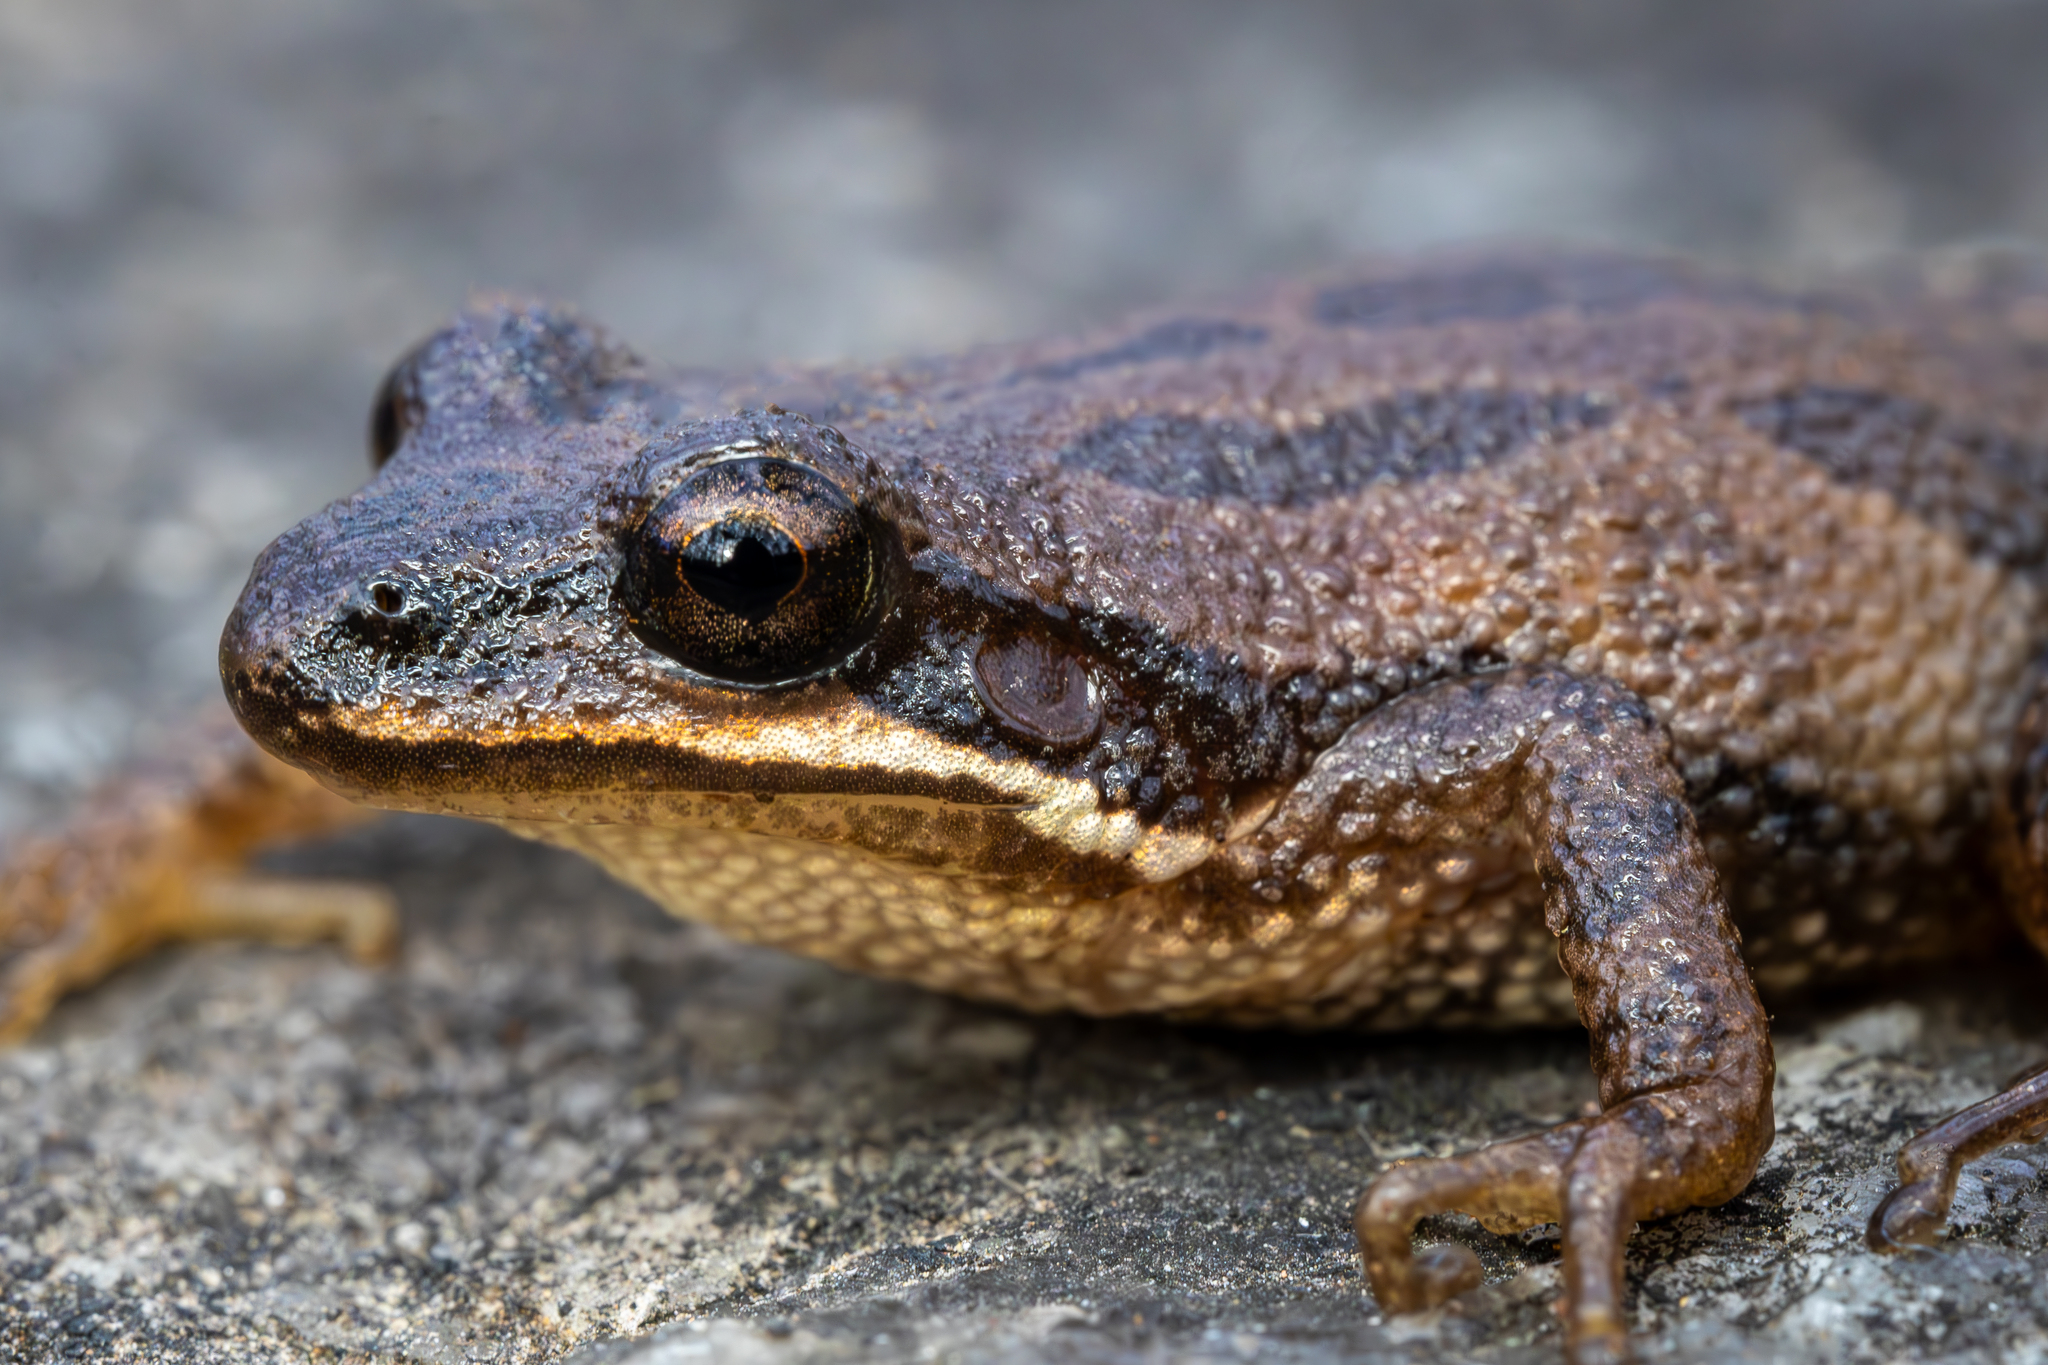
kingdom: Animalia
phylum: Chordata
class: Amphibia
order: Anura
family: Hylidae
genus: Pseudacris
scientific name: Pseudacris feriarum
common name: Upland chorus frog
